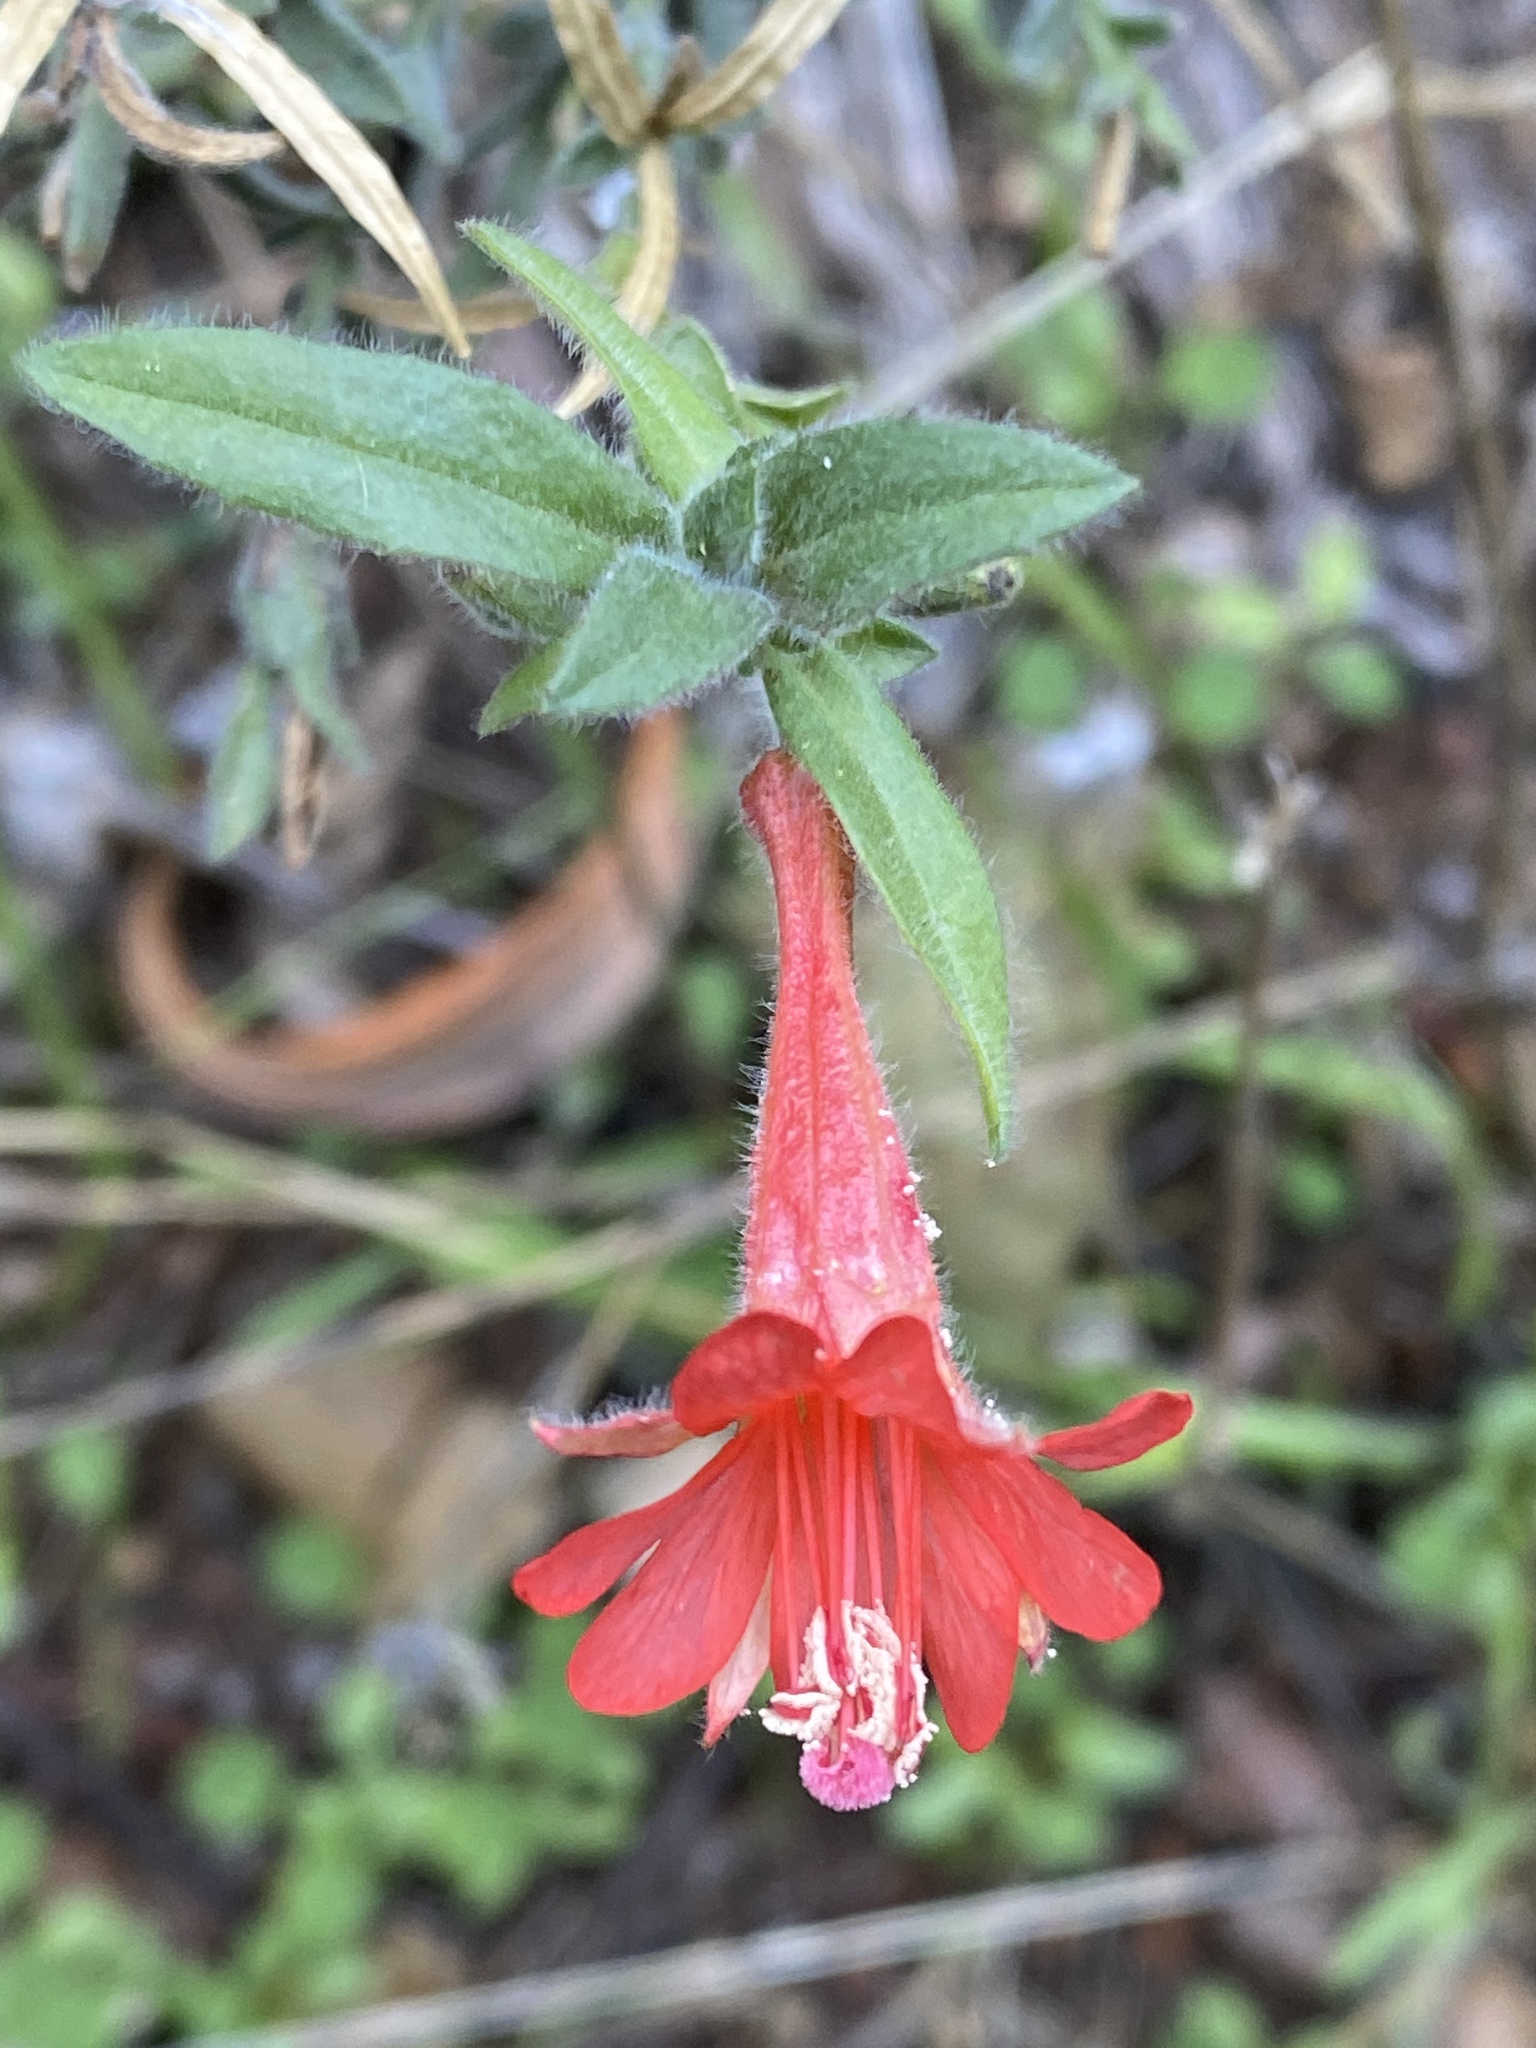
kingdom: Plantae
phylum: Tracheophyta
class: Magnoliopsida
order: Myrtales
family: Onagraceae
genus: Epilobium
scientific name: Epilobium canum
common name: California-fuchsia
